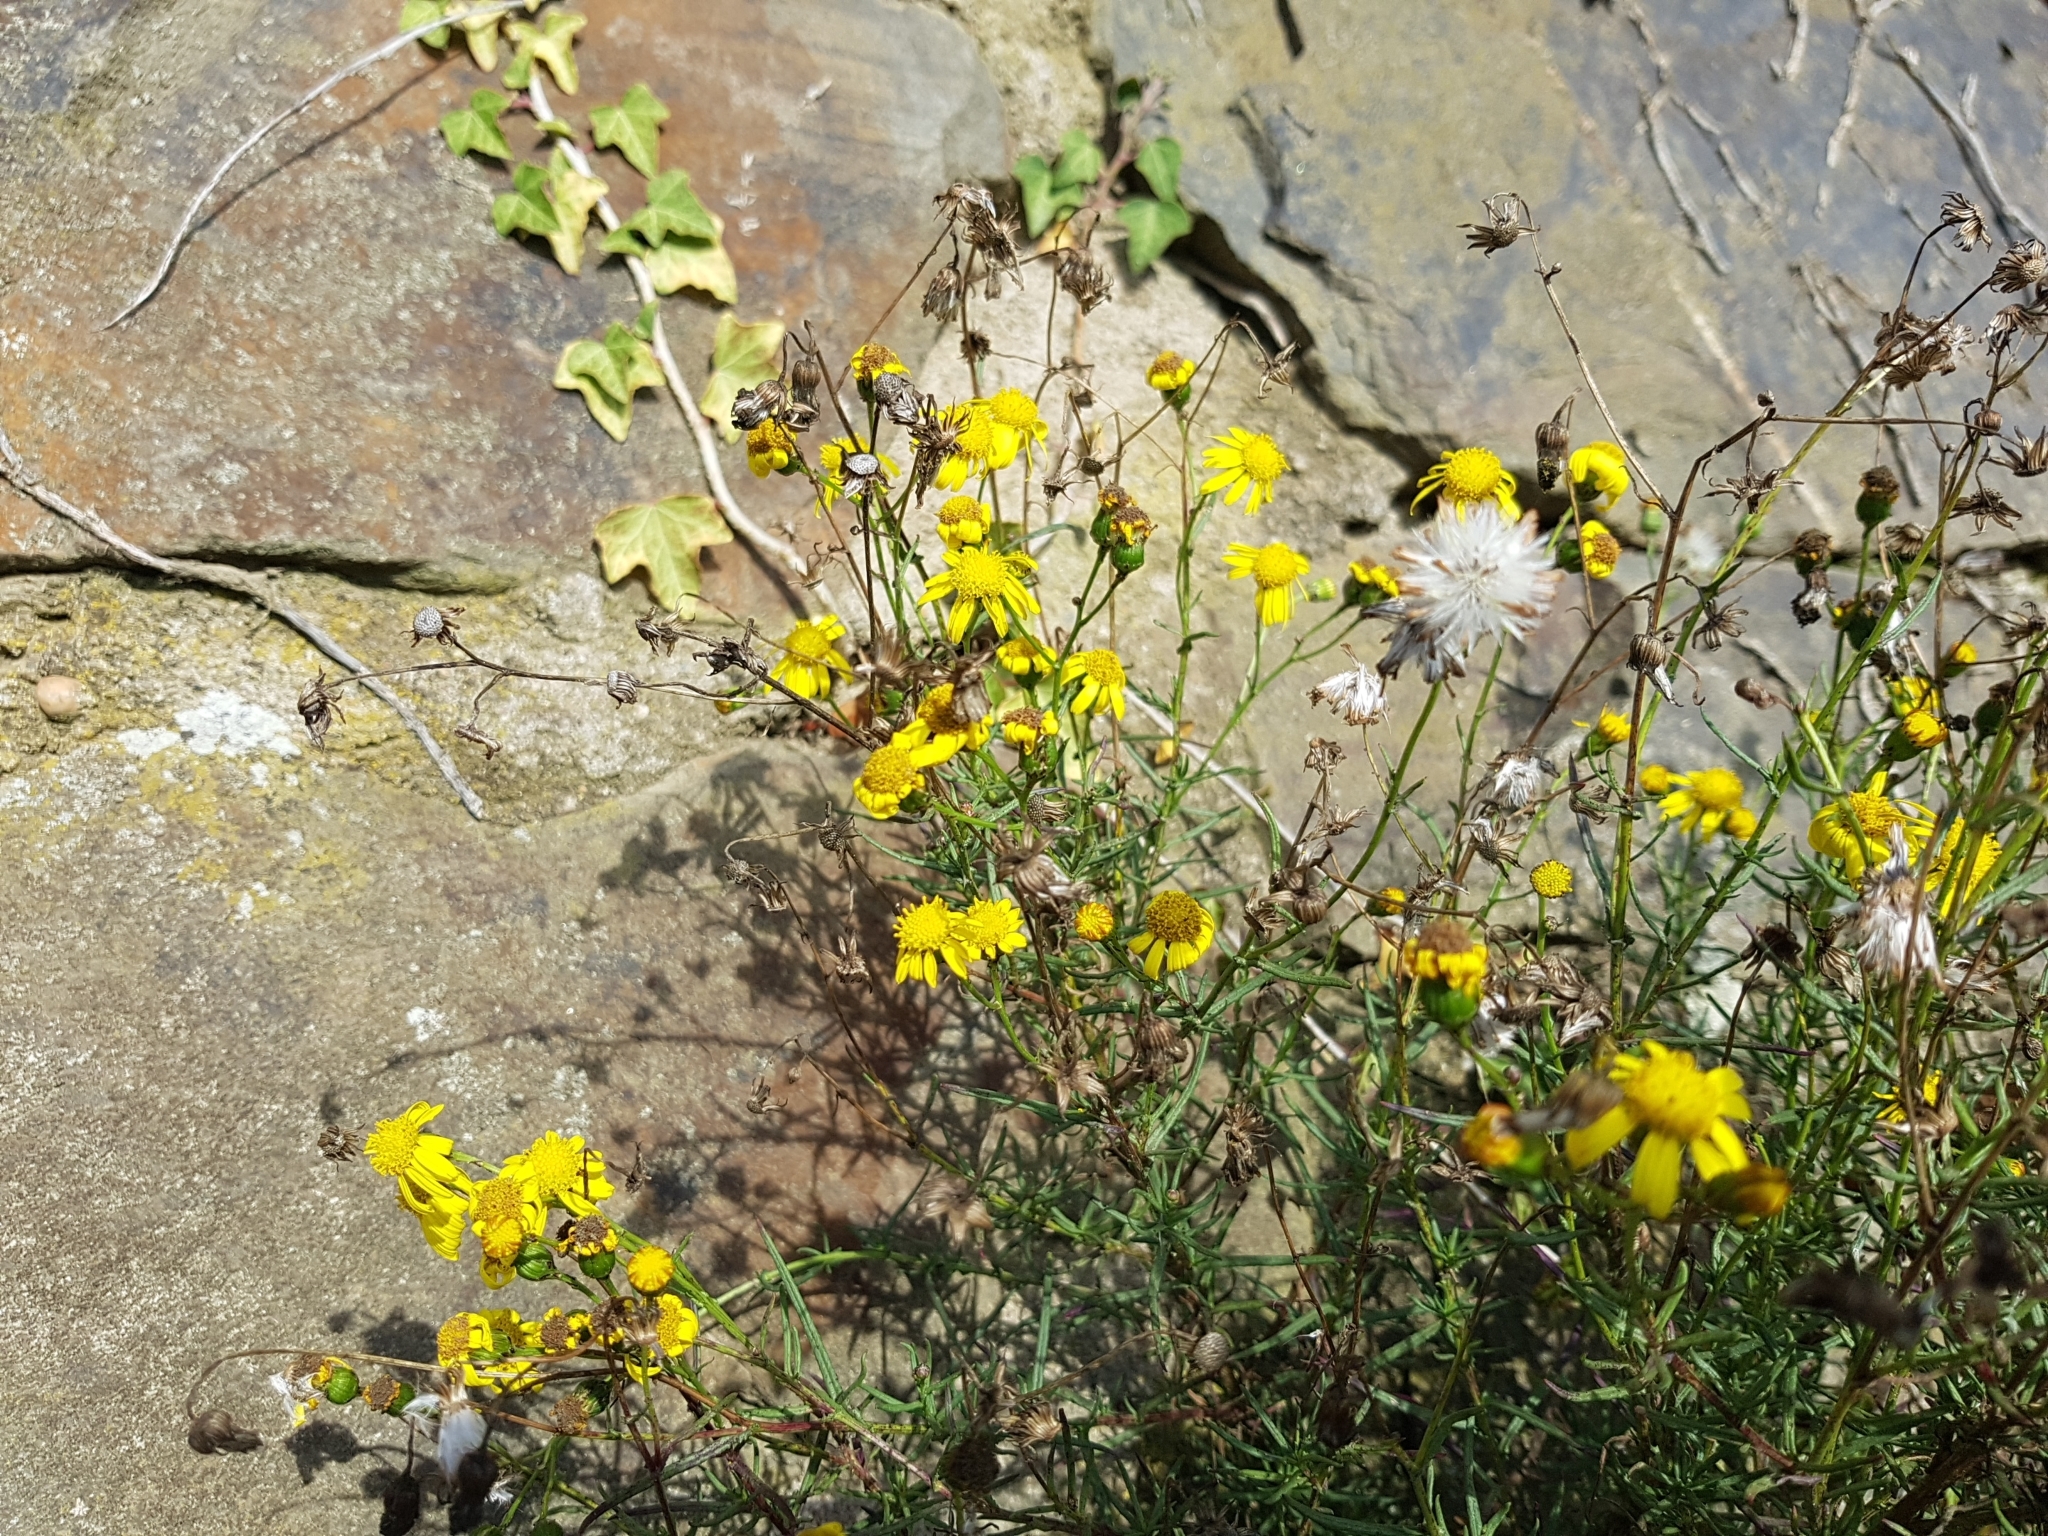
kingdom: Plantae
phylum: Tracheophyta
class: Magnoliopsida
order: Asterales
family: Asteraceae
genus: Senecio
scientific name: Senecio inaequidens
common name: Narrow-leaved ragwort
